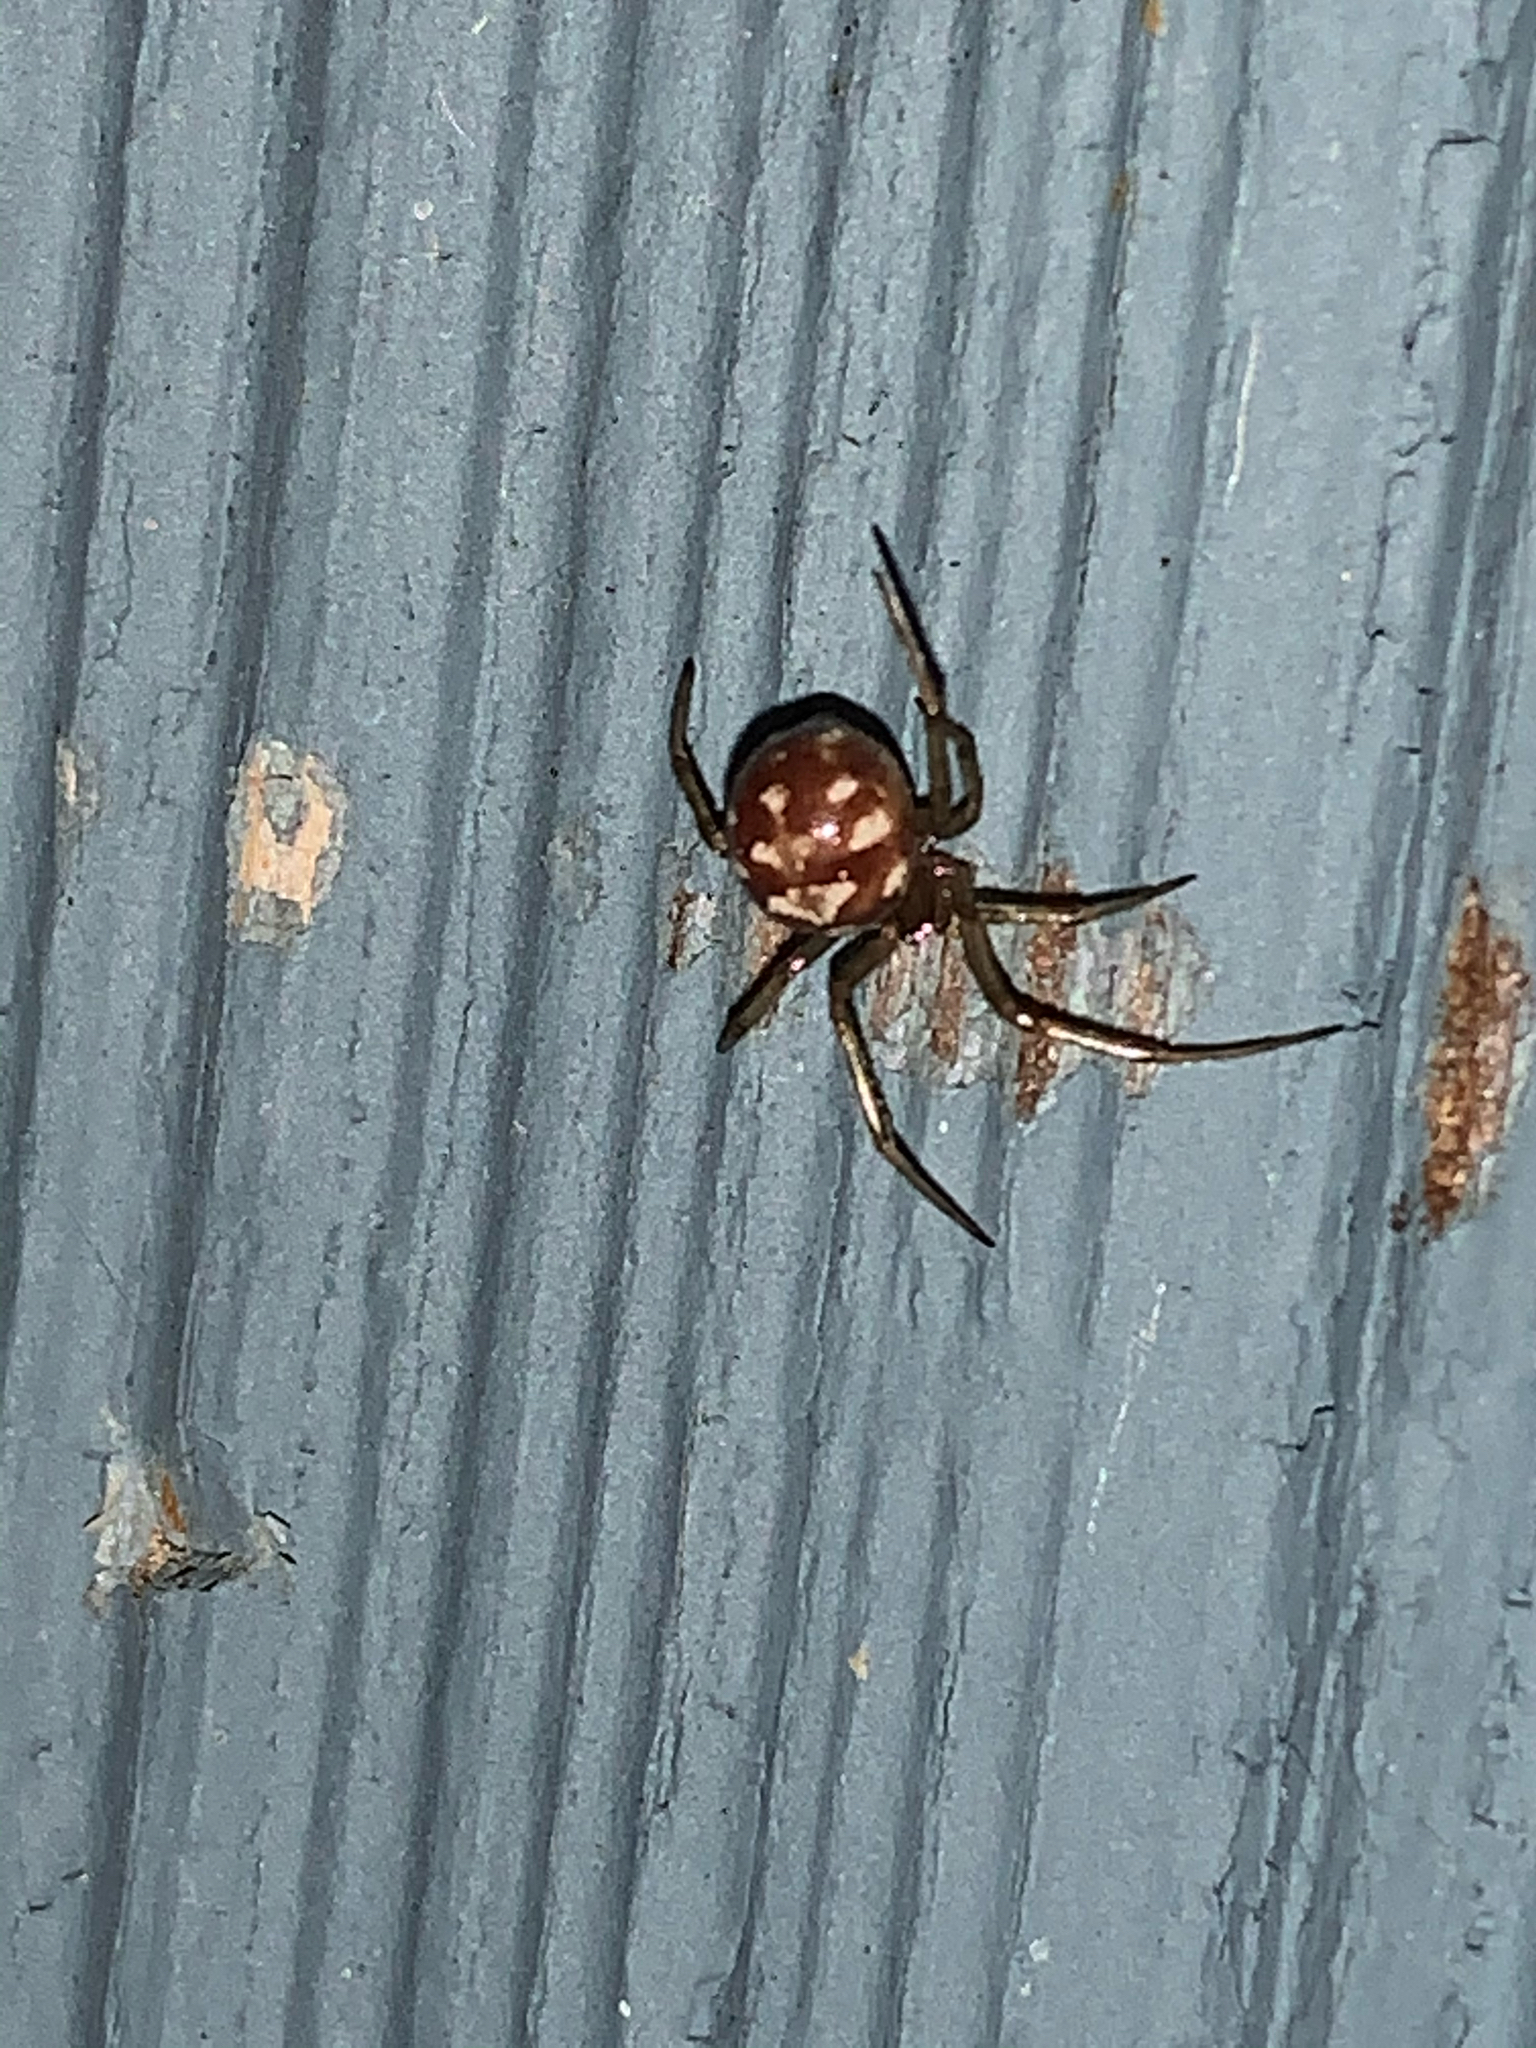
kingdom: Animalia
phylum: Arthropoda
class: Arachnida
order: Araneae
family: Theridiidae
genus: Steatoda
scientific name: Steatoda triangulosa
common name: Triangulate bud spider
